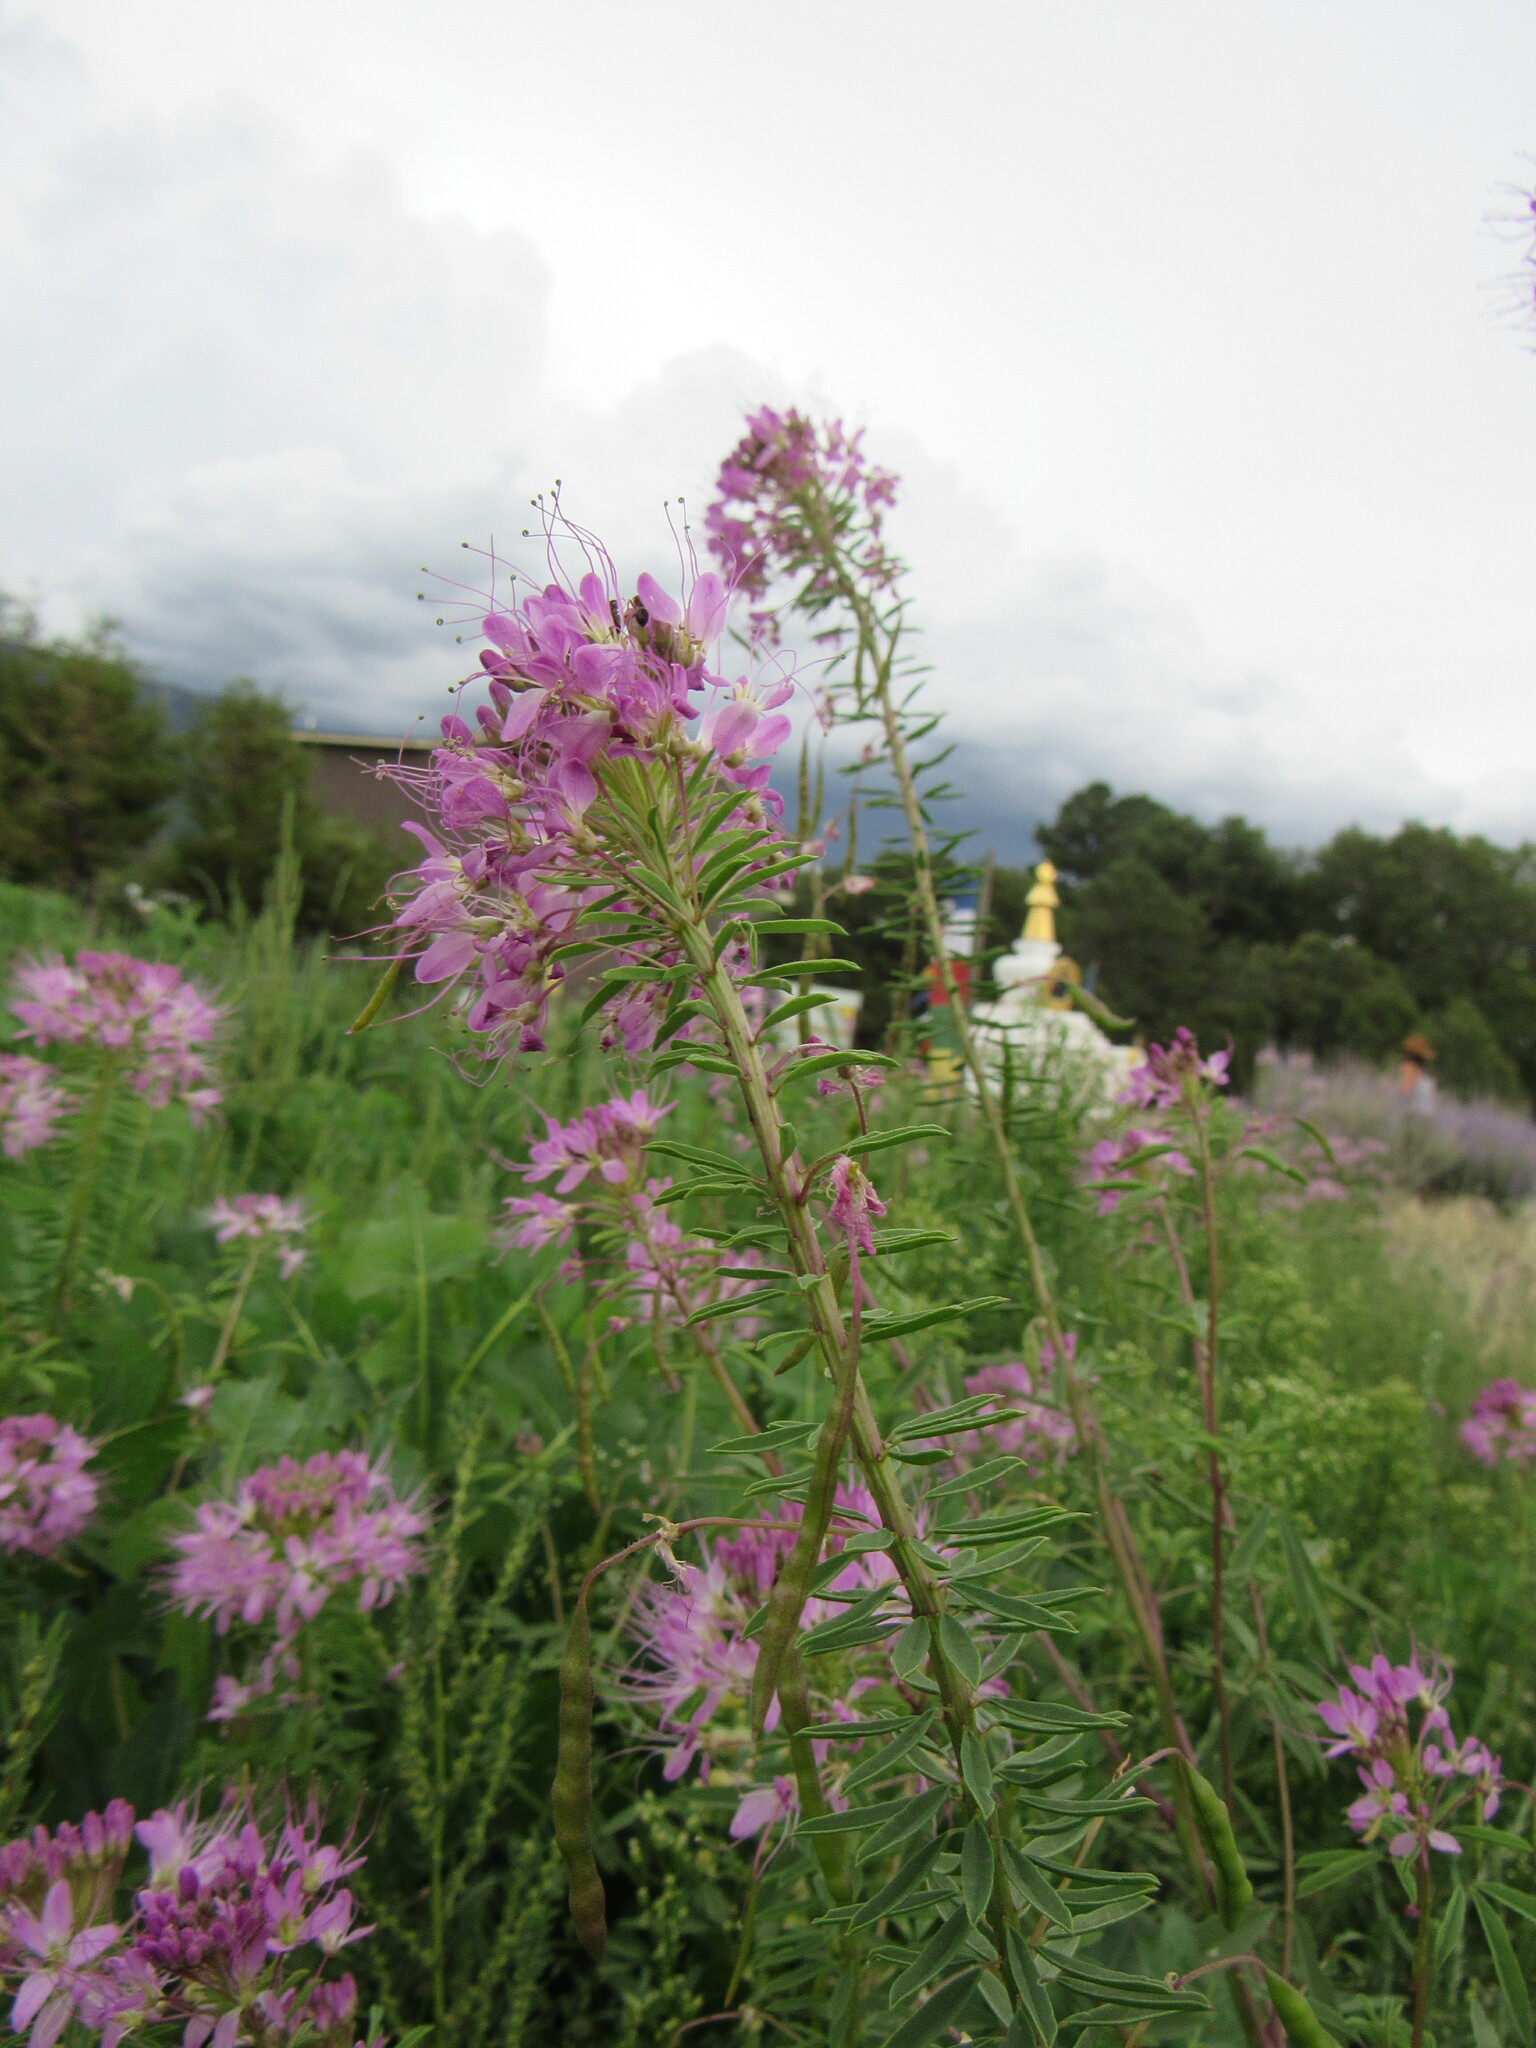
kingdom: Plantae
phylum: Tracheophyta
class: Magnoliopsida
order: Brassicales
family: Cleomaceae
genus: Cleomella
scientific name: Cleomella serrulata
